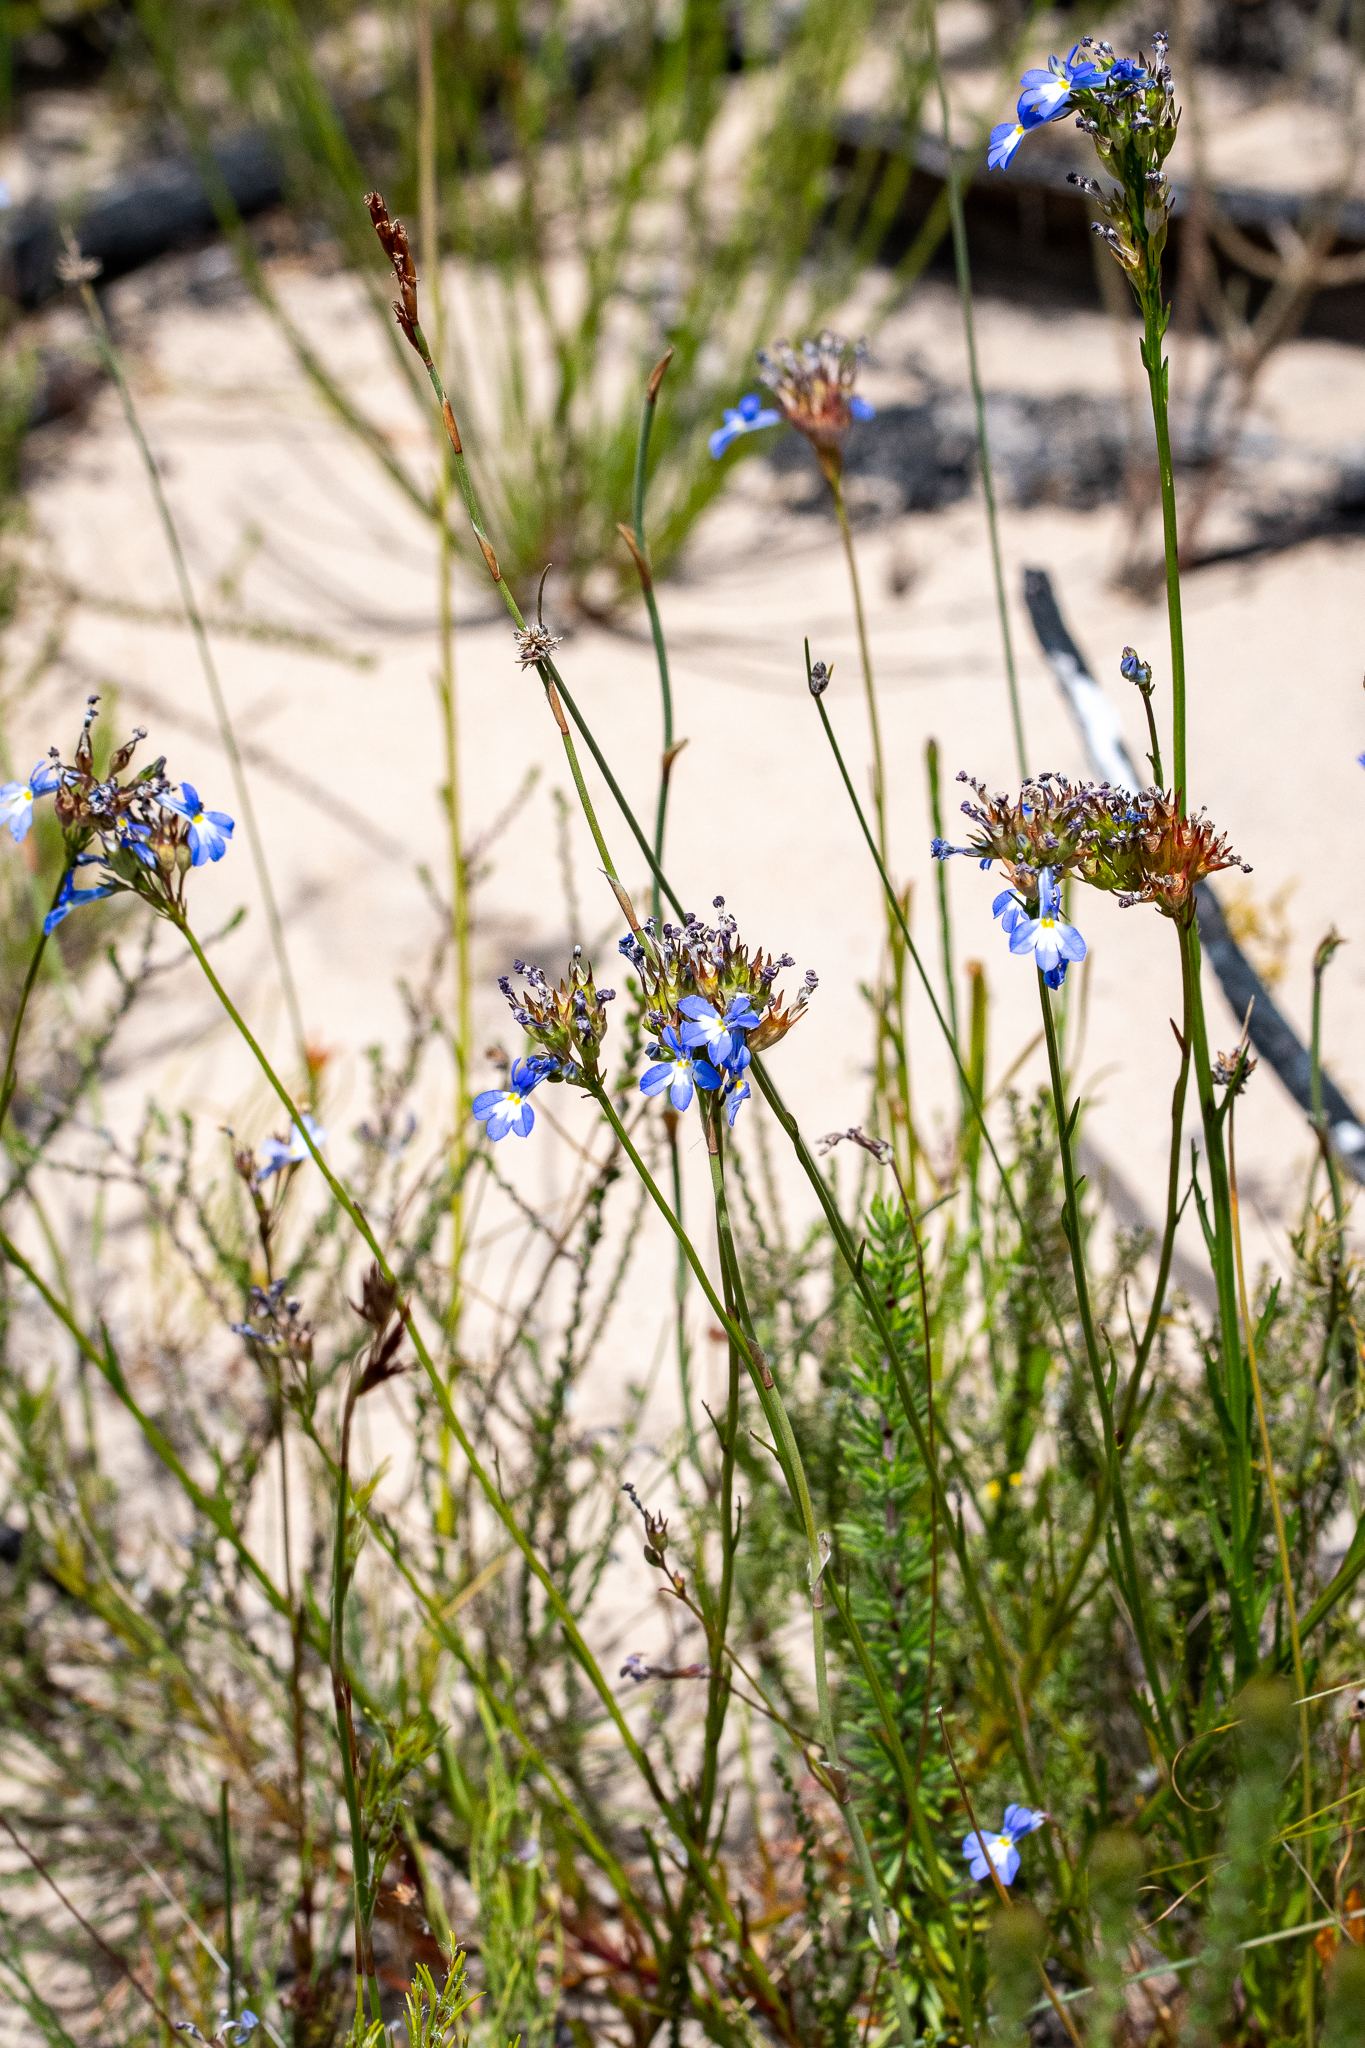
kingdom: Plantae
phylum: Tracheophyta
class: Magnoliopsida
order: Asterales
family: Campanulaceae
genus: Lobelia
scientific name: Lobelia comosa
